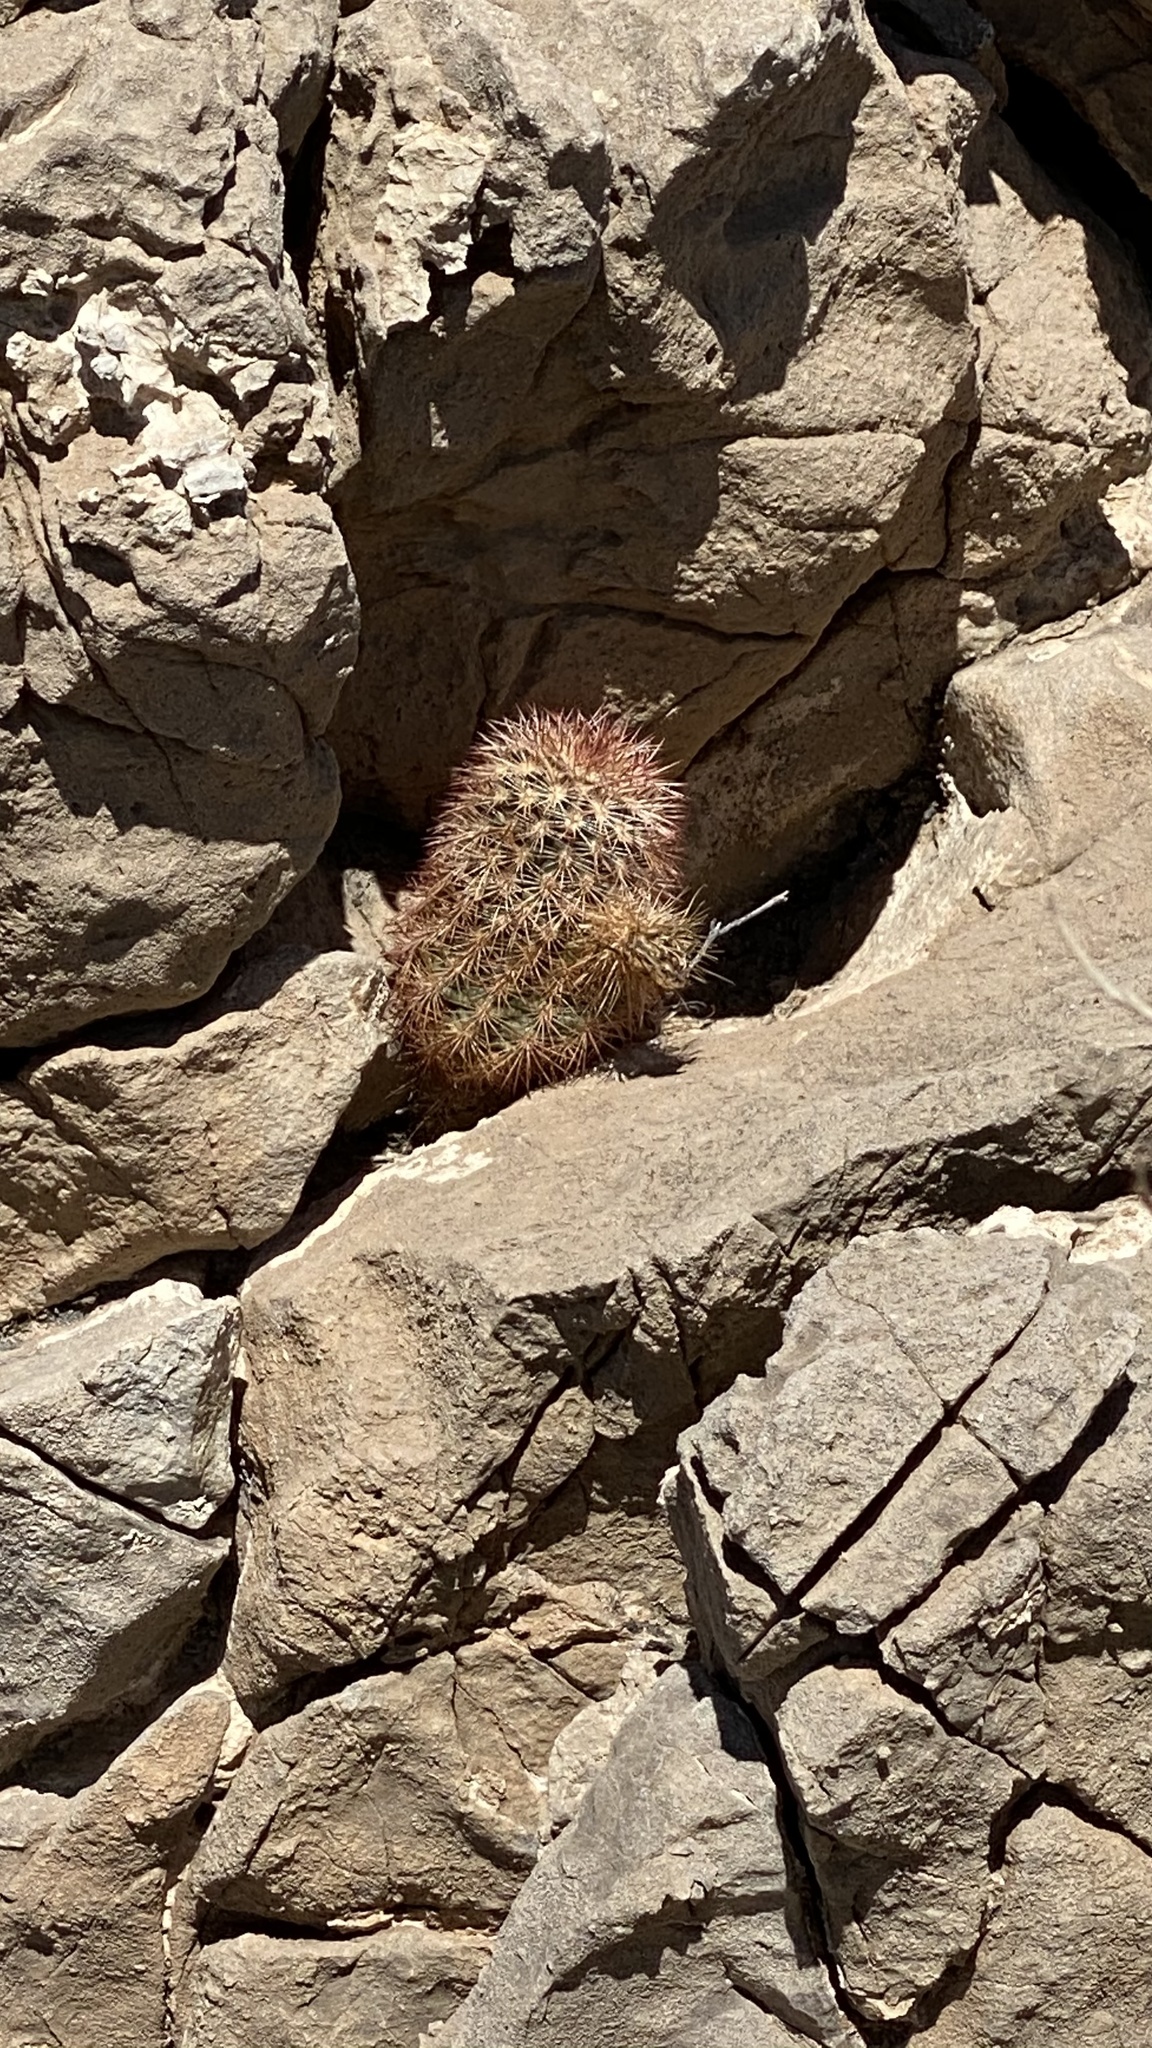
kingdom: Plantae
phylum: Tracheophyta
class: Magnoliopsida
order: Caryophyllales
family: Cactaceae
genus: Echinocereus
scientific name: Echinocereus dasyacanthus
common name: Spiny hedgehog cactus
